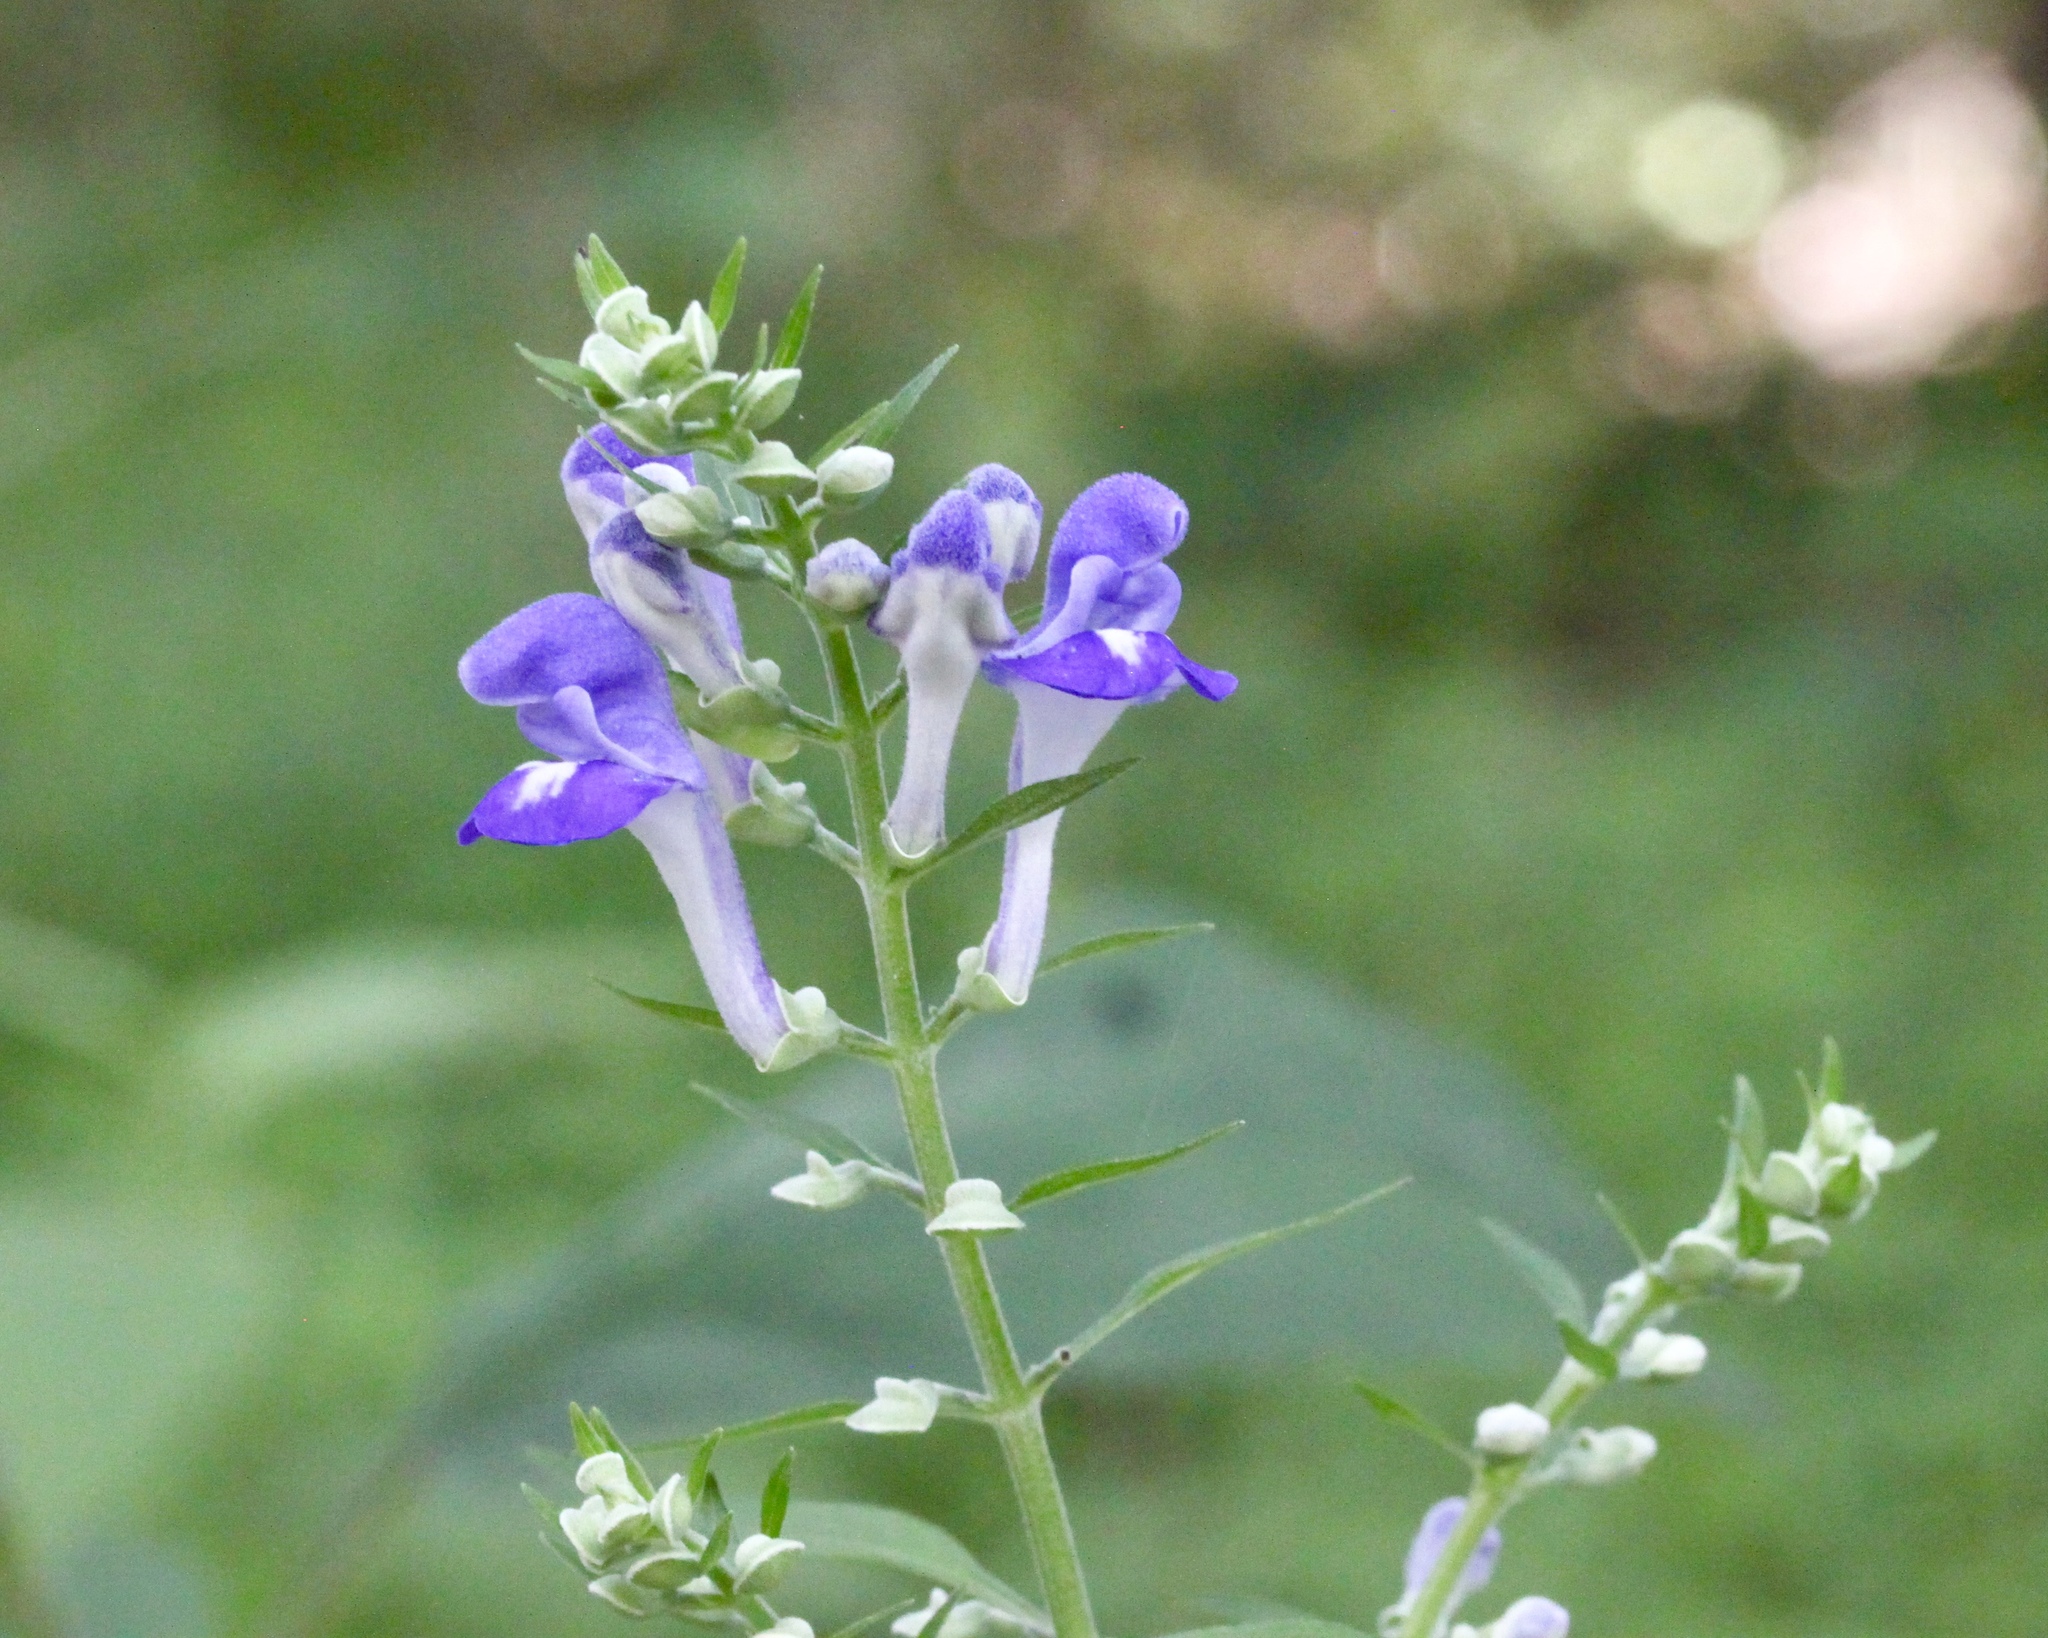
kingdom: Plantae
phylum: Tracheophyta
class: Magnoliopsida
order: Lamiales
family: Lamiaceae
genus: Scutellaria
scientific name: Scutellaria incana
